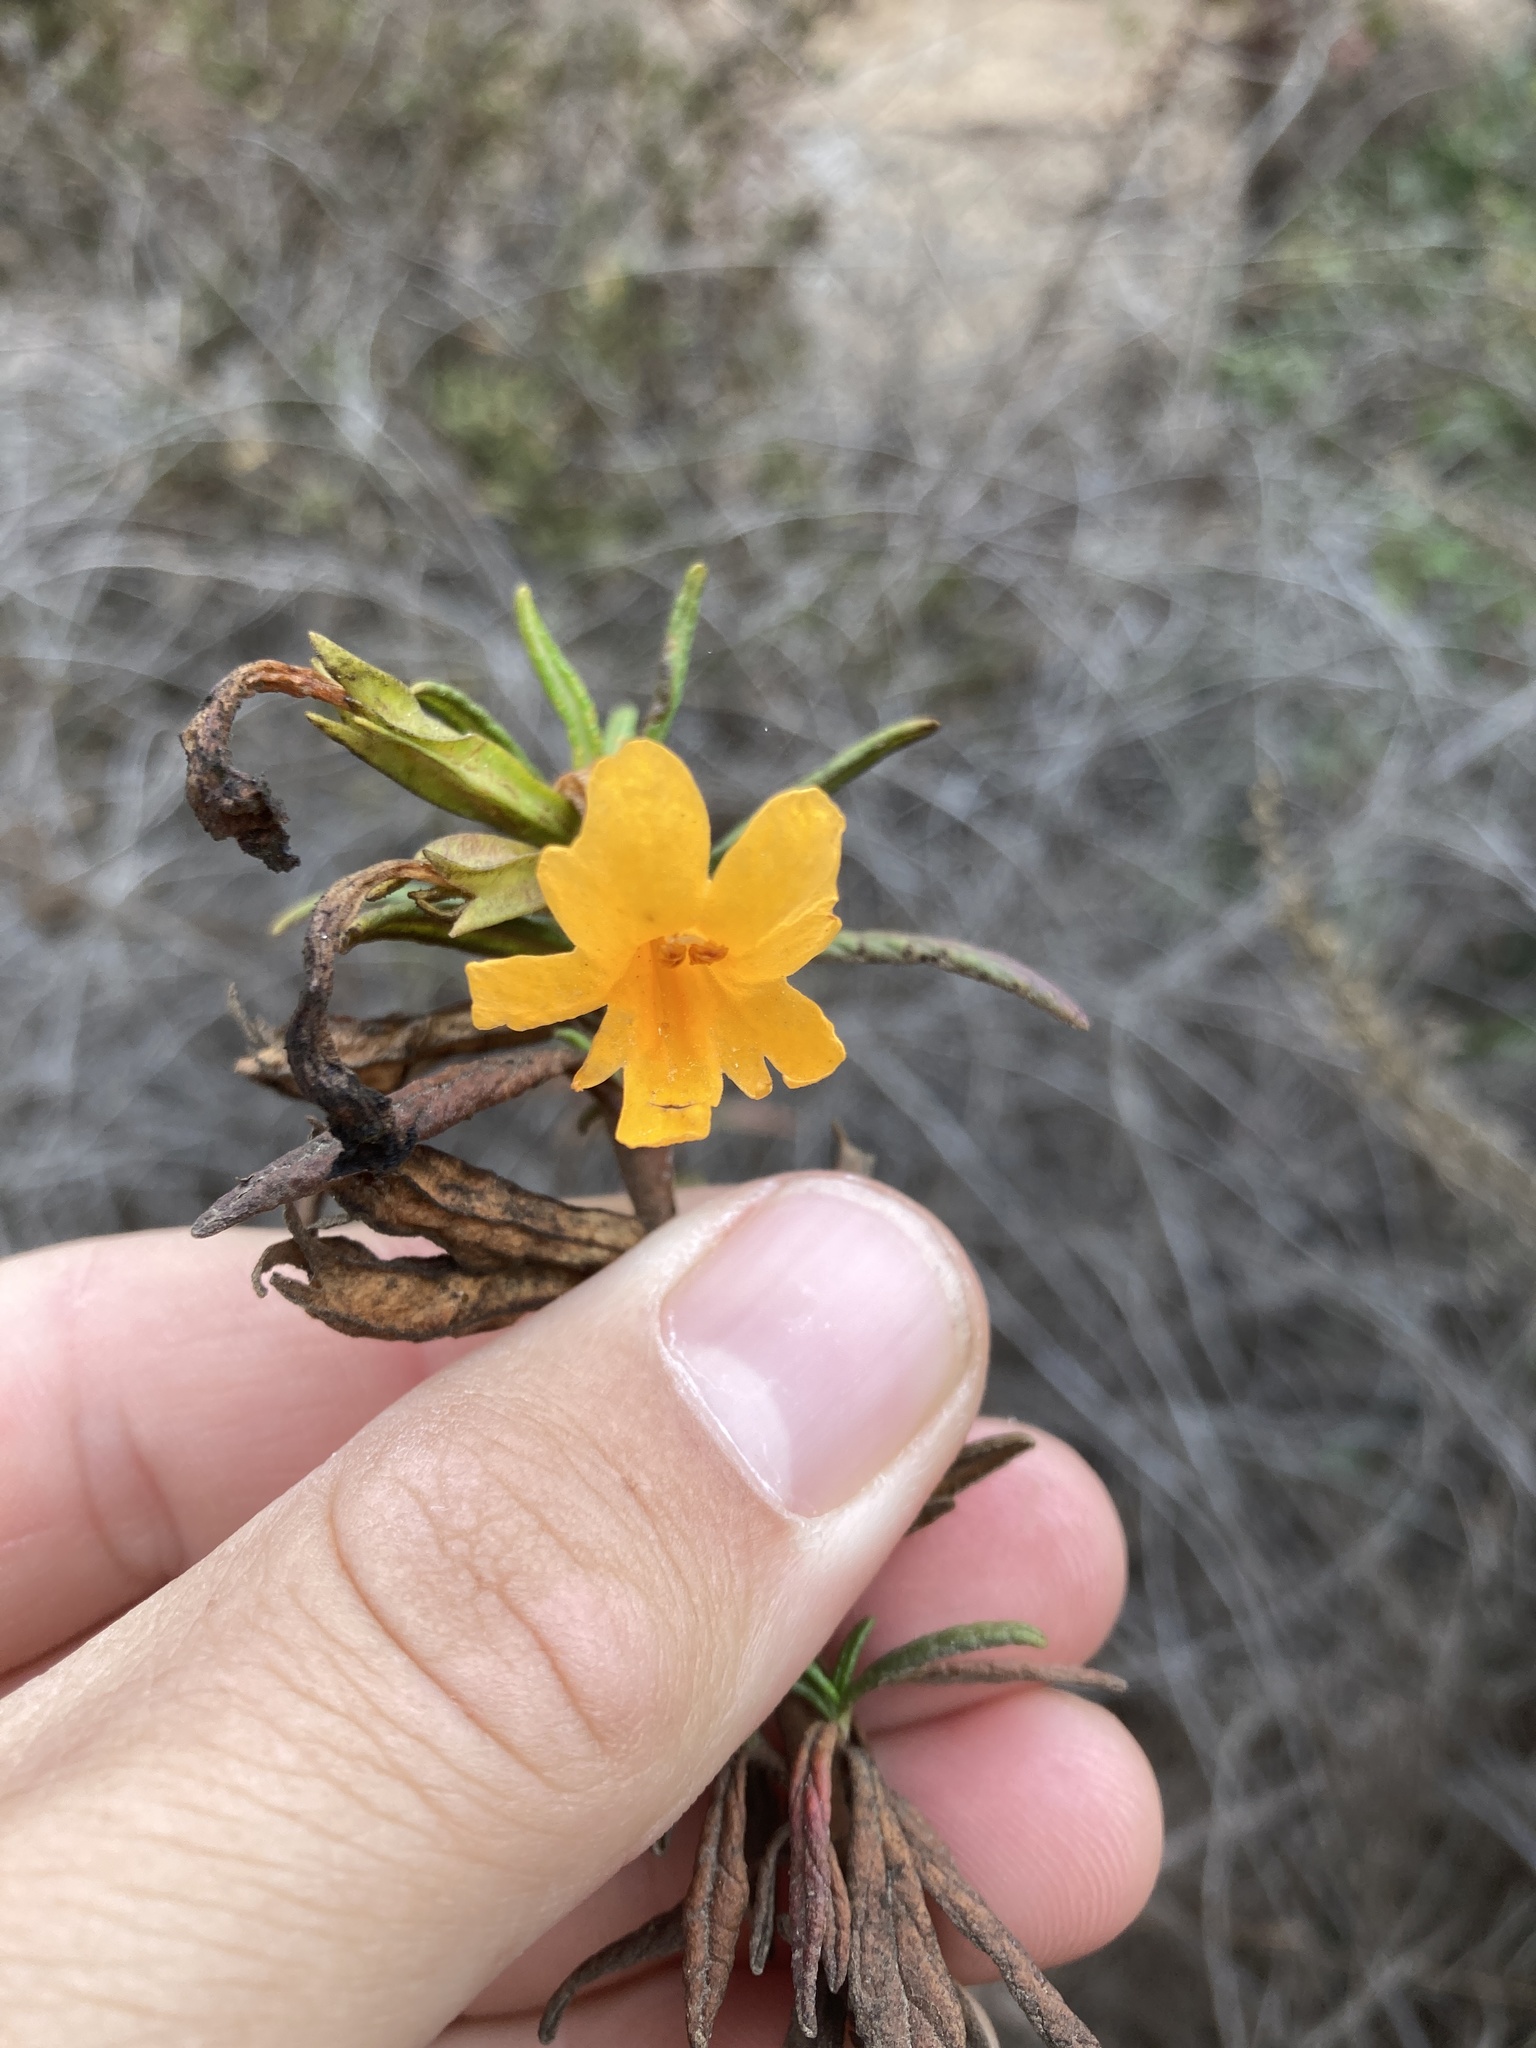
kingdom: Plantae
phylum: Tracheophyta
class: Magnoliopsida
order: Lamiales
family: Phrymaceae
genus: Diplacus
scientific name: Diplacus aurantiacus
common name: Bush monkey-flower
